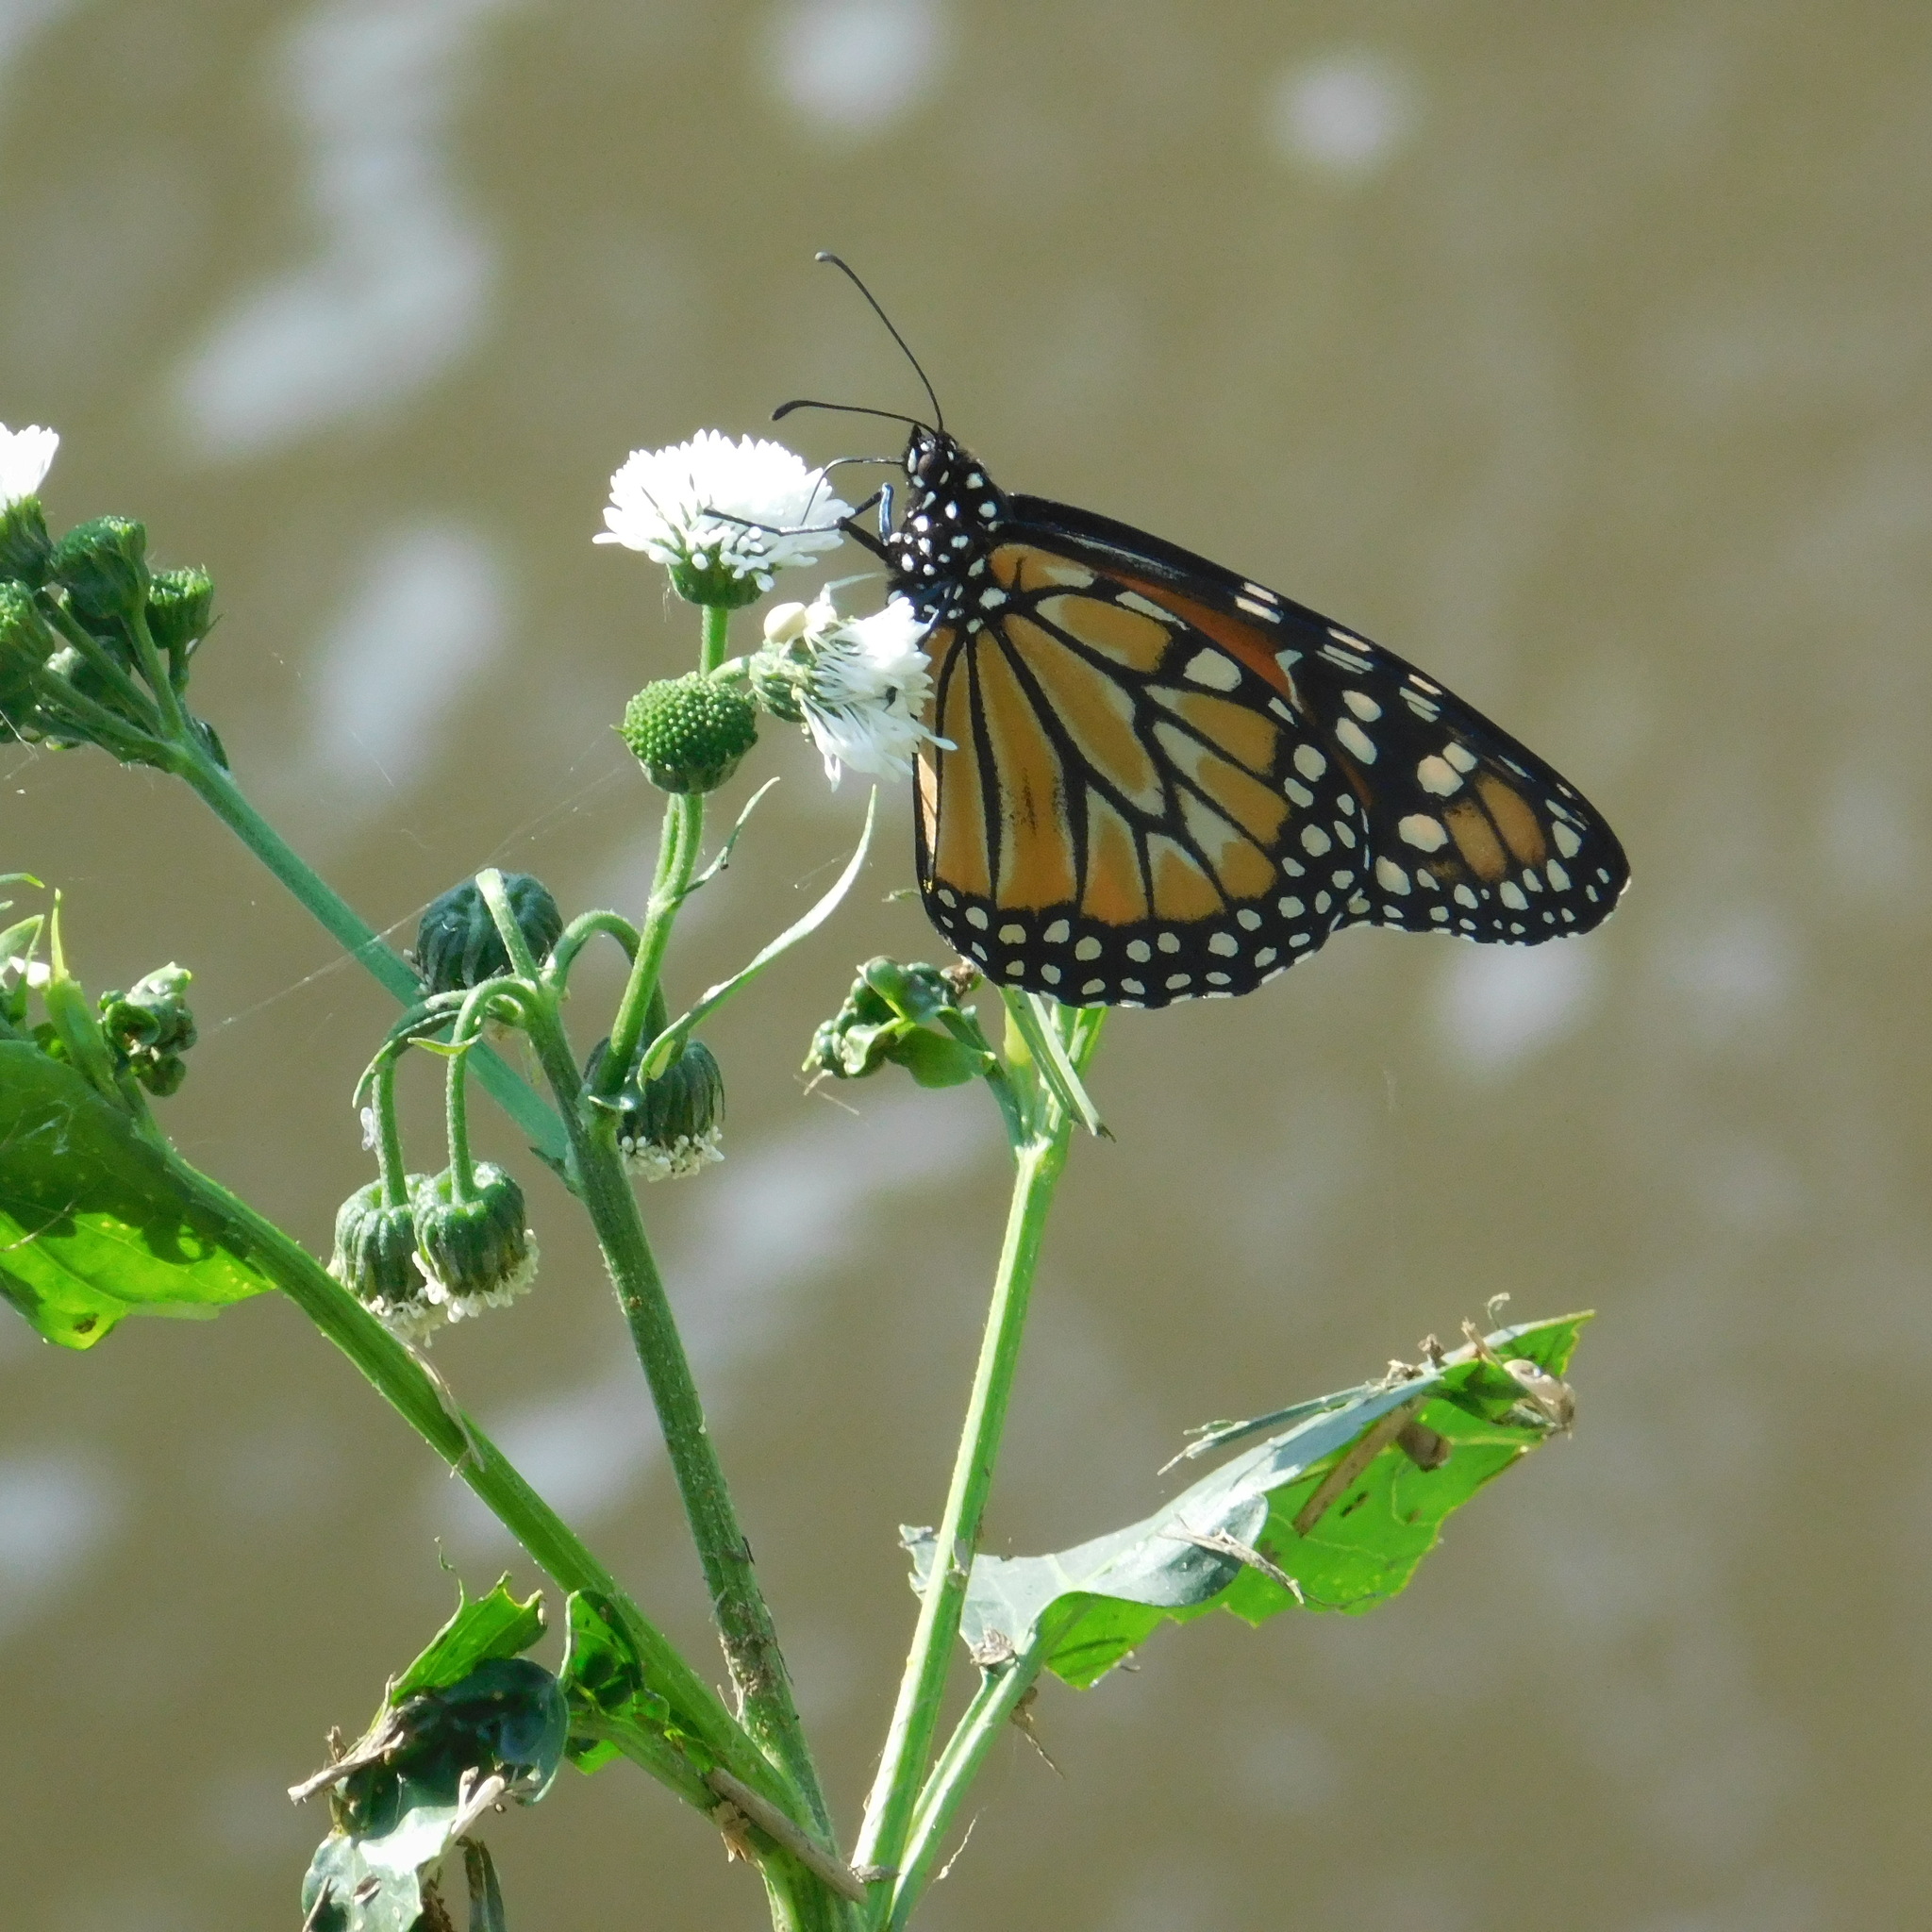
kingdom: Animalia
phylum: Arthropoda
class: Insecta
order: Lepidoptera
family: Nymphalidae
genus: Danaus
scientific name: Danaus erippus
